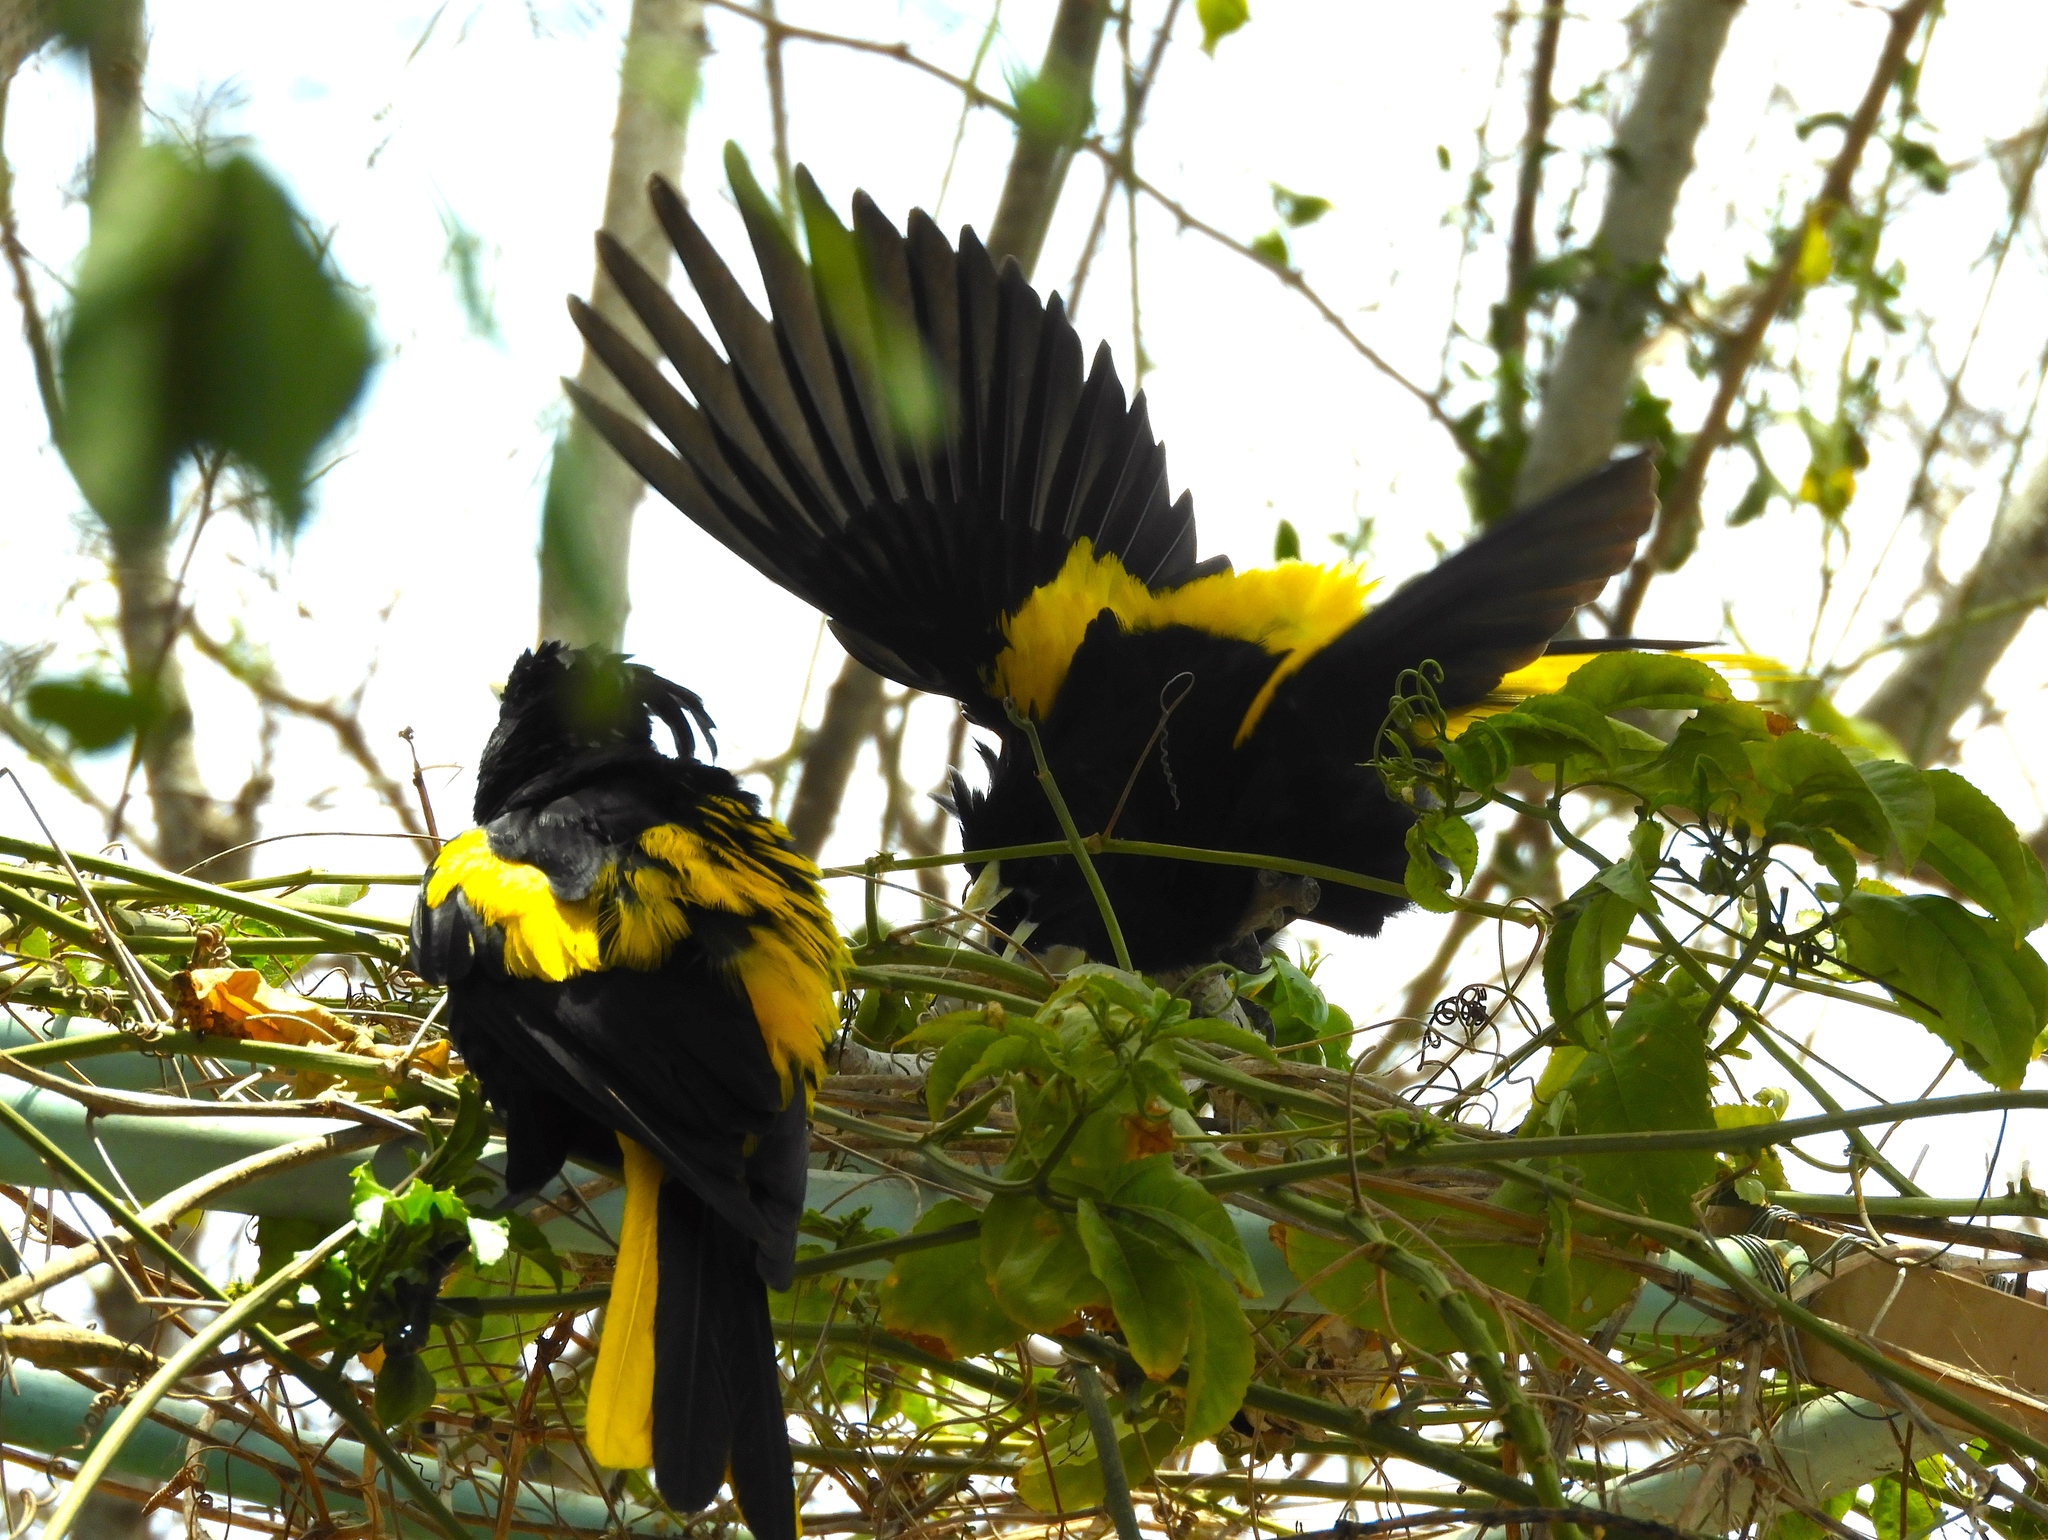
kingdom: Animalia
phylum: Chordata
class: Aves
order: Passeriformes
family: Icteridae
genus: Cacicus
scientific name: Cacicus melanicterus
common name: Yellow-winged cacique
